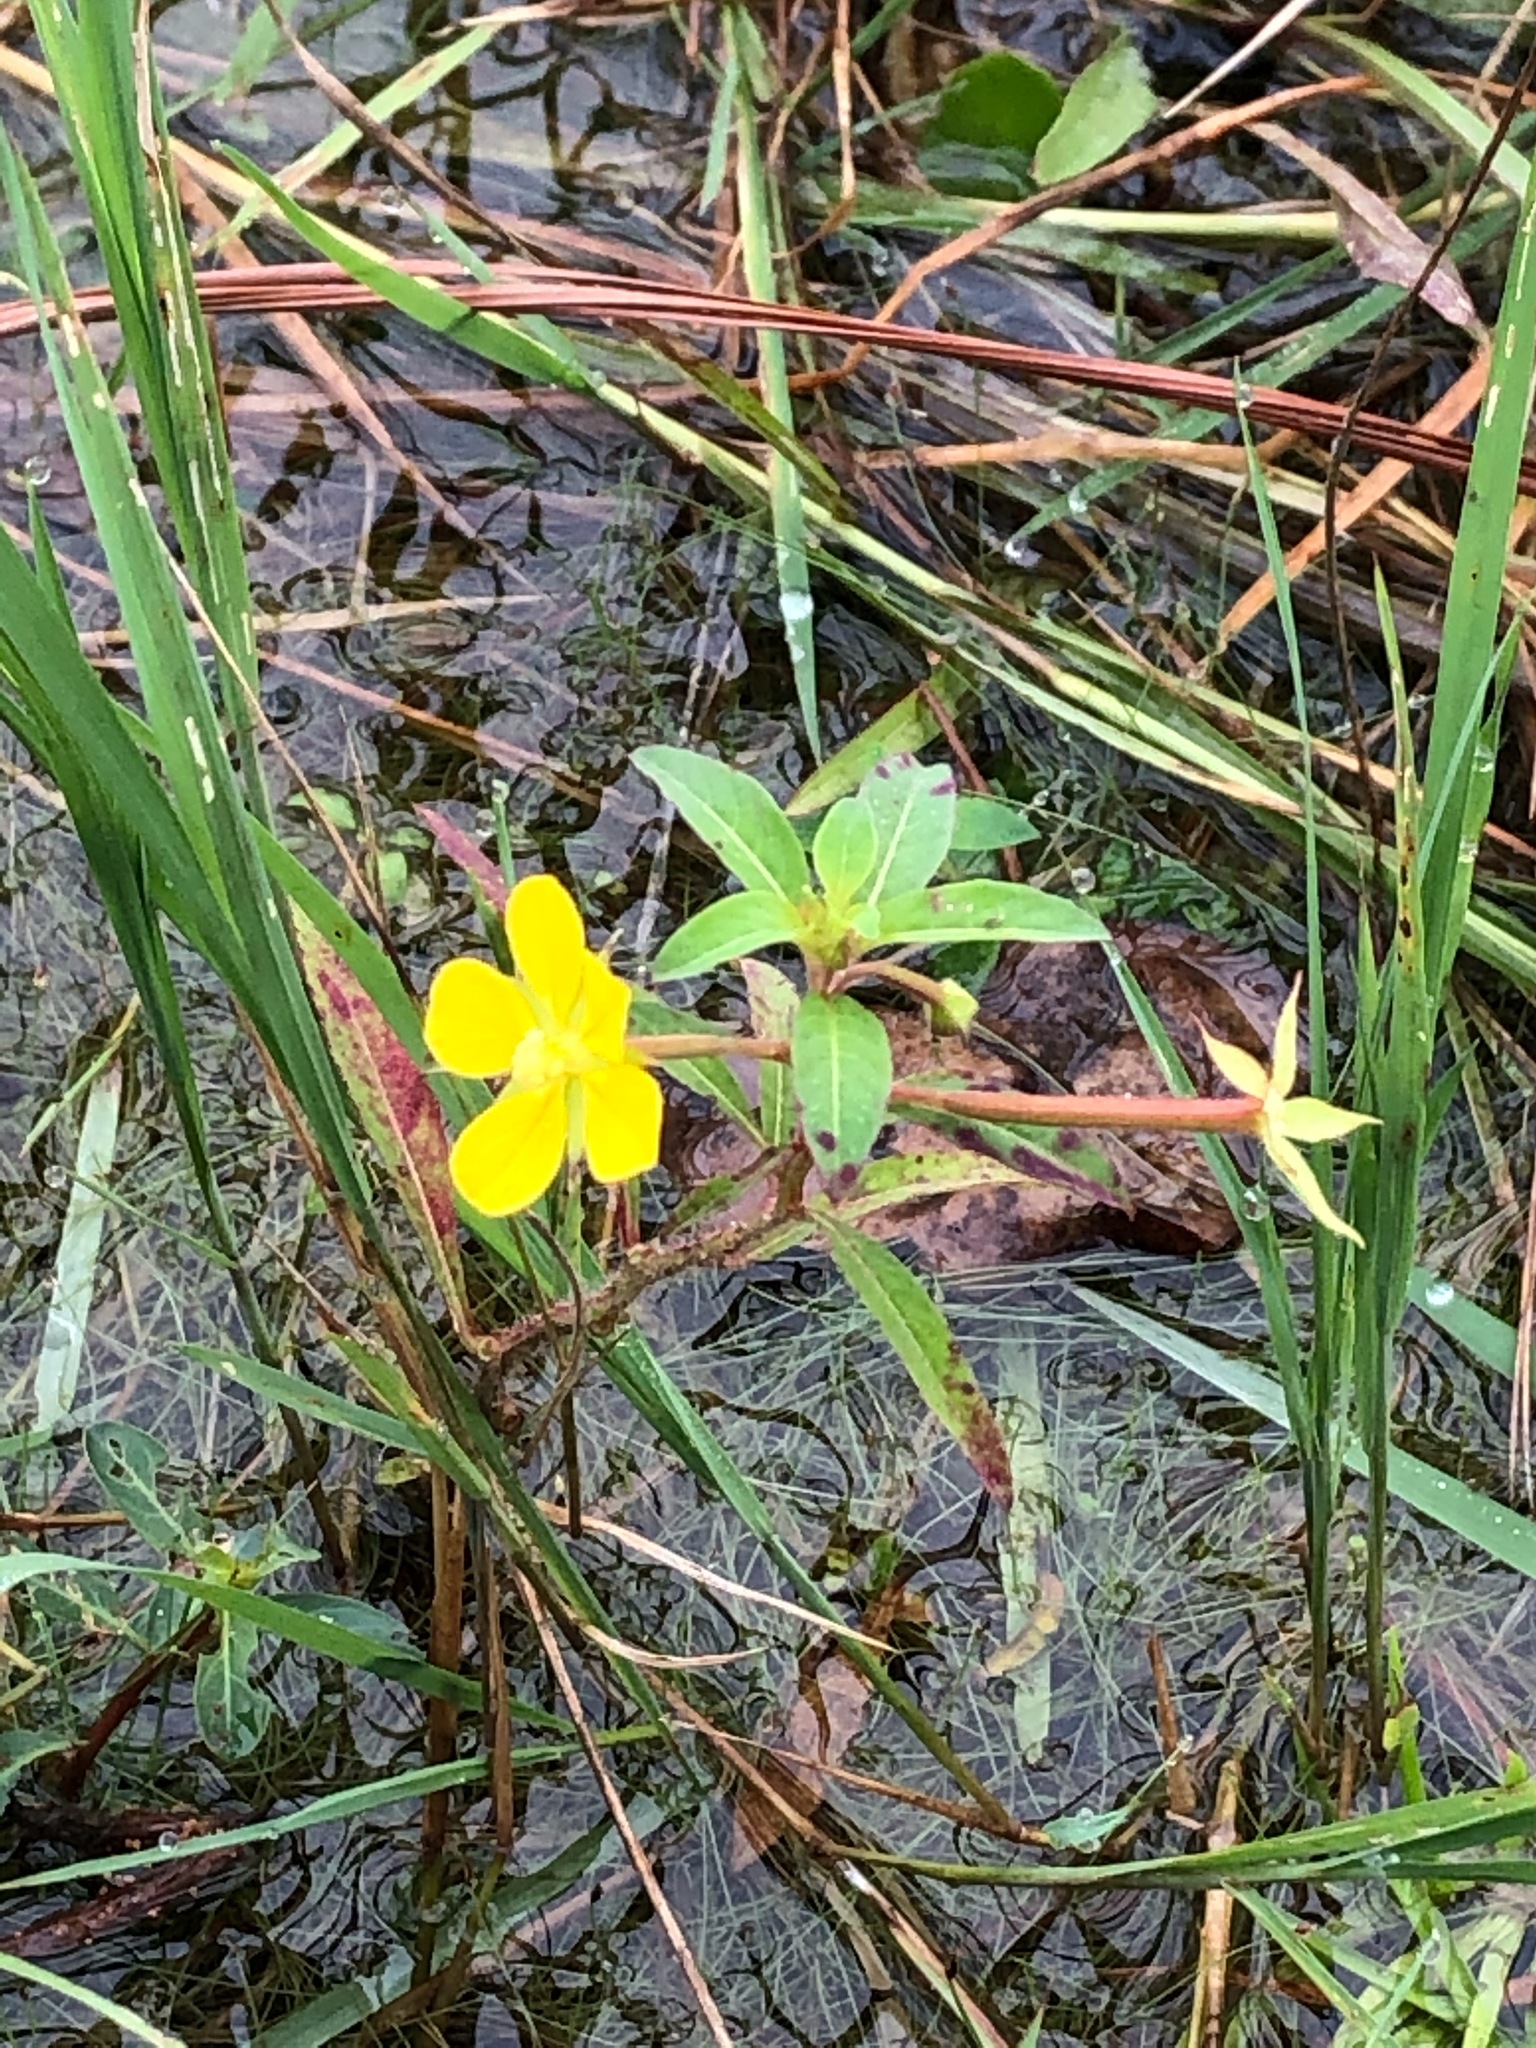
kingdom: Plantae
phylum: Tracheophyta
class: Magnoliopsida
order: Myrtales
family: Onagraceae
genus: Ludwigia
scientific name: Ludwigia leptocarpa
